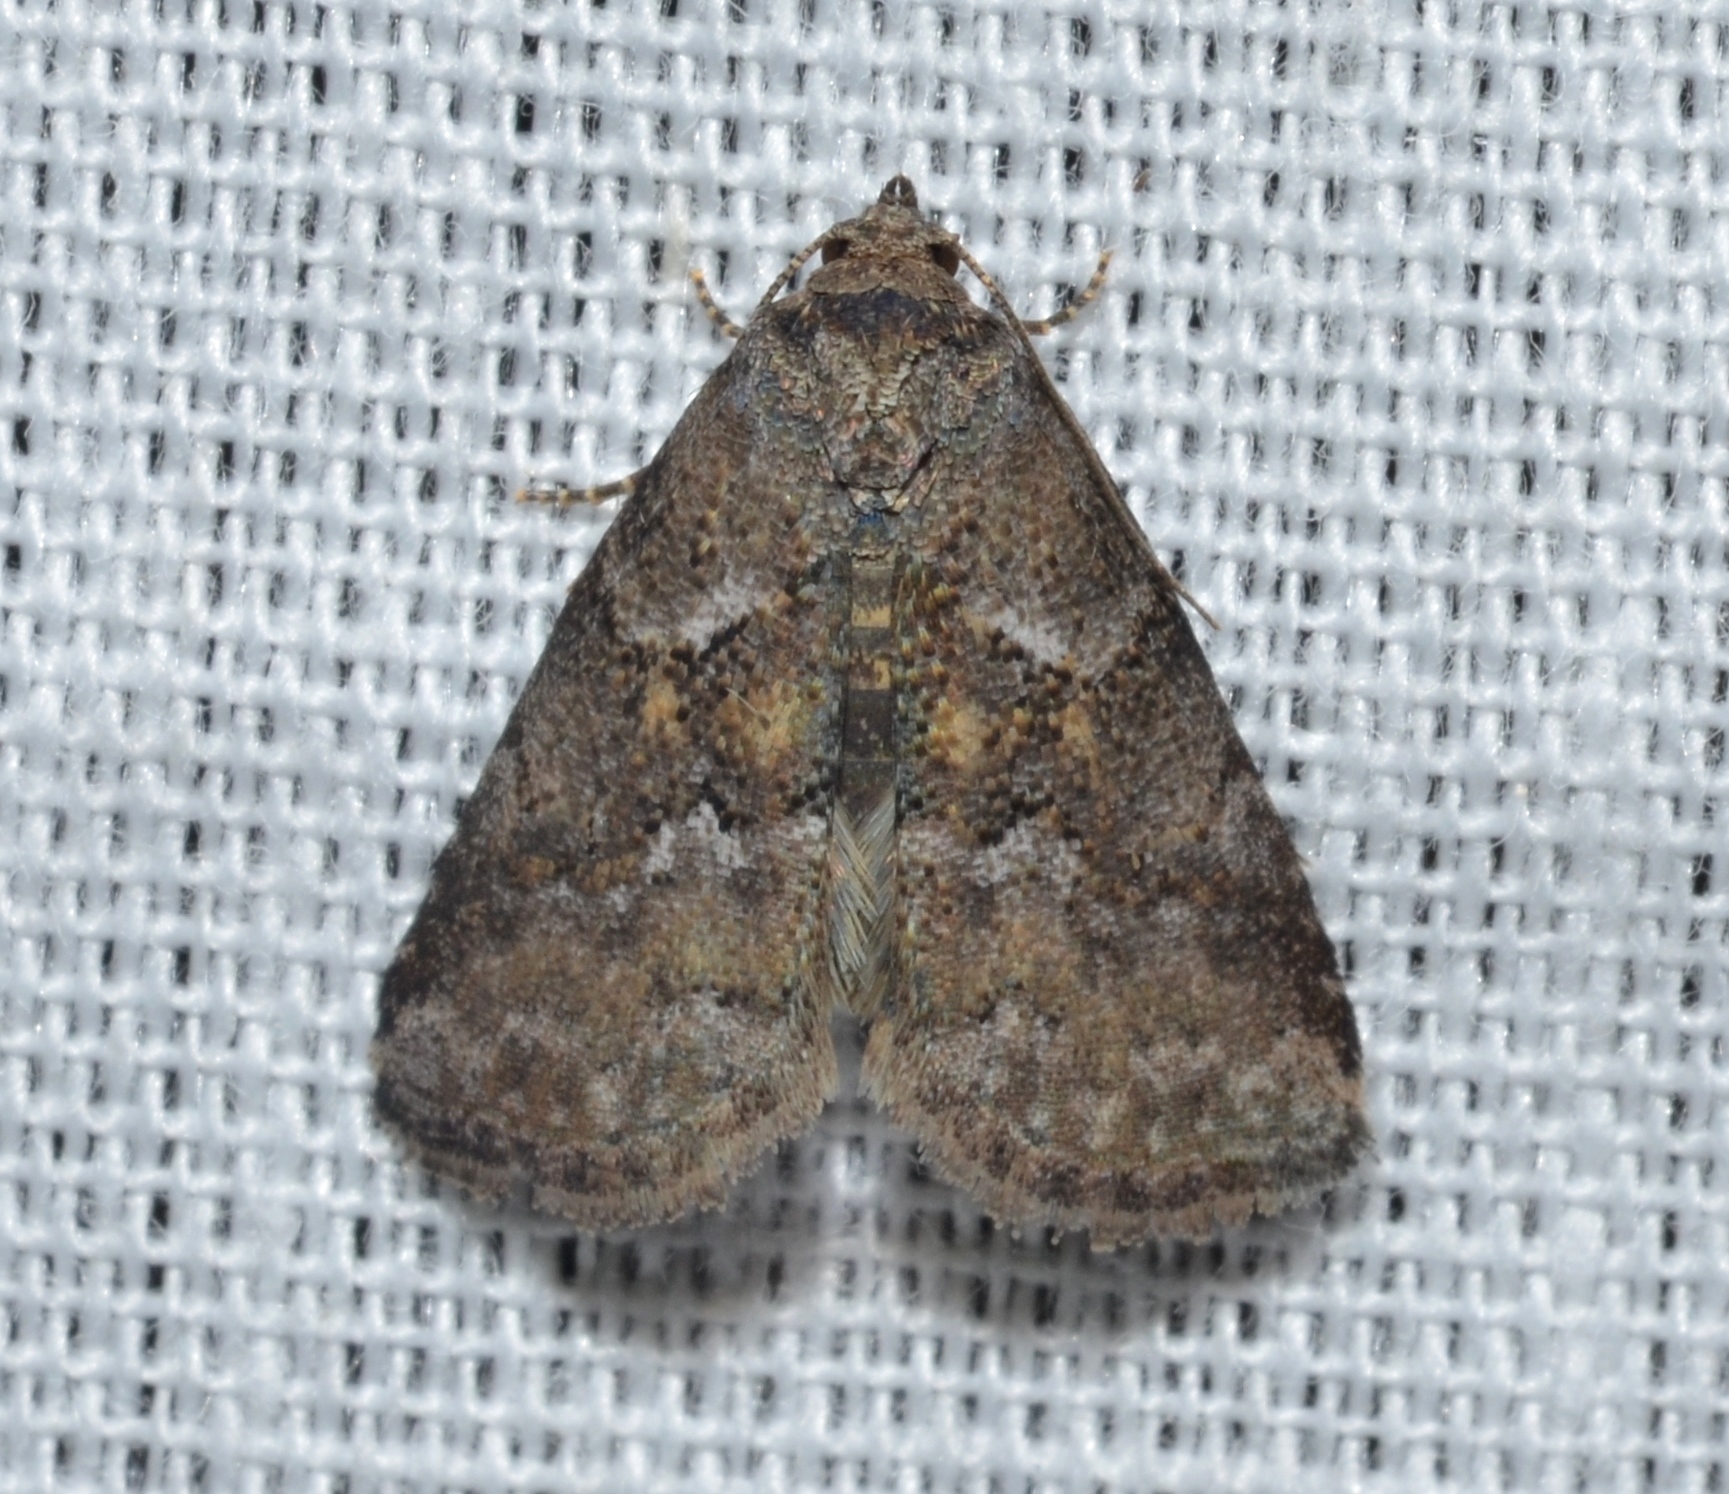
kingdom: Animalia
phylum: Arthropoda
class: Insecta
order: Lepidoptera
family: Erebidae
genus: Hyperstrotia
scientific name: Hyperstrotia nana
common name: White-lined graylet
